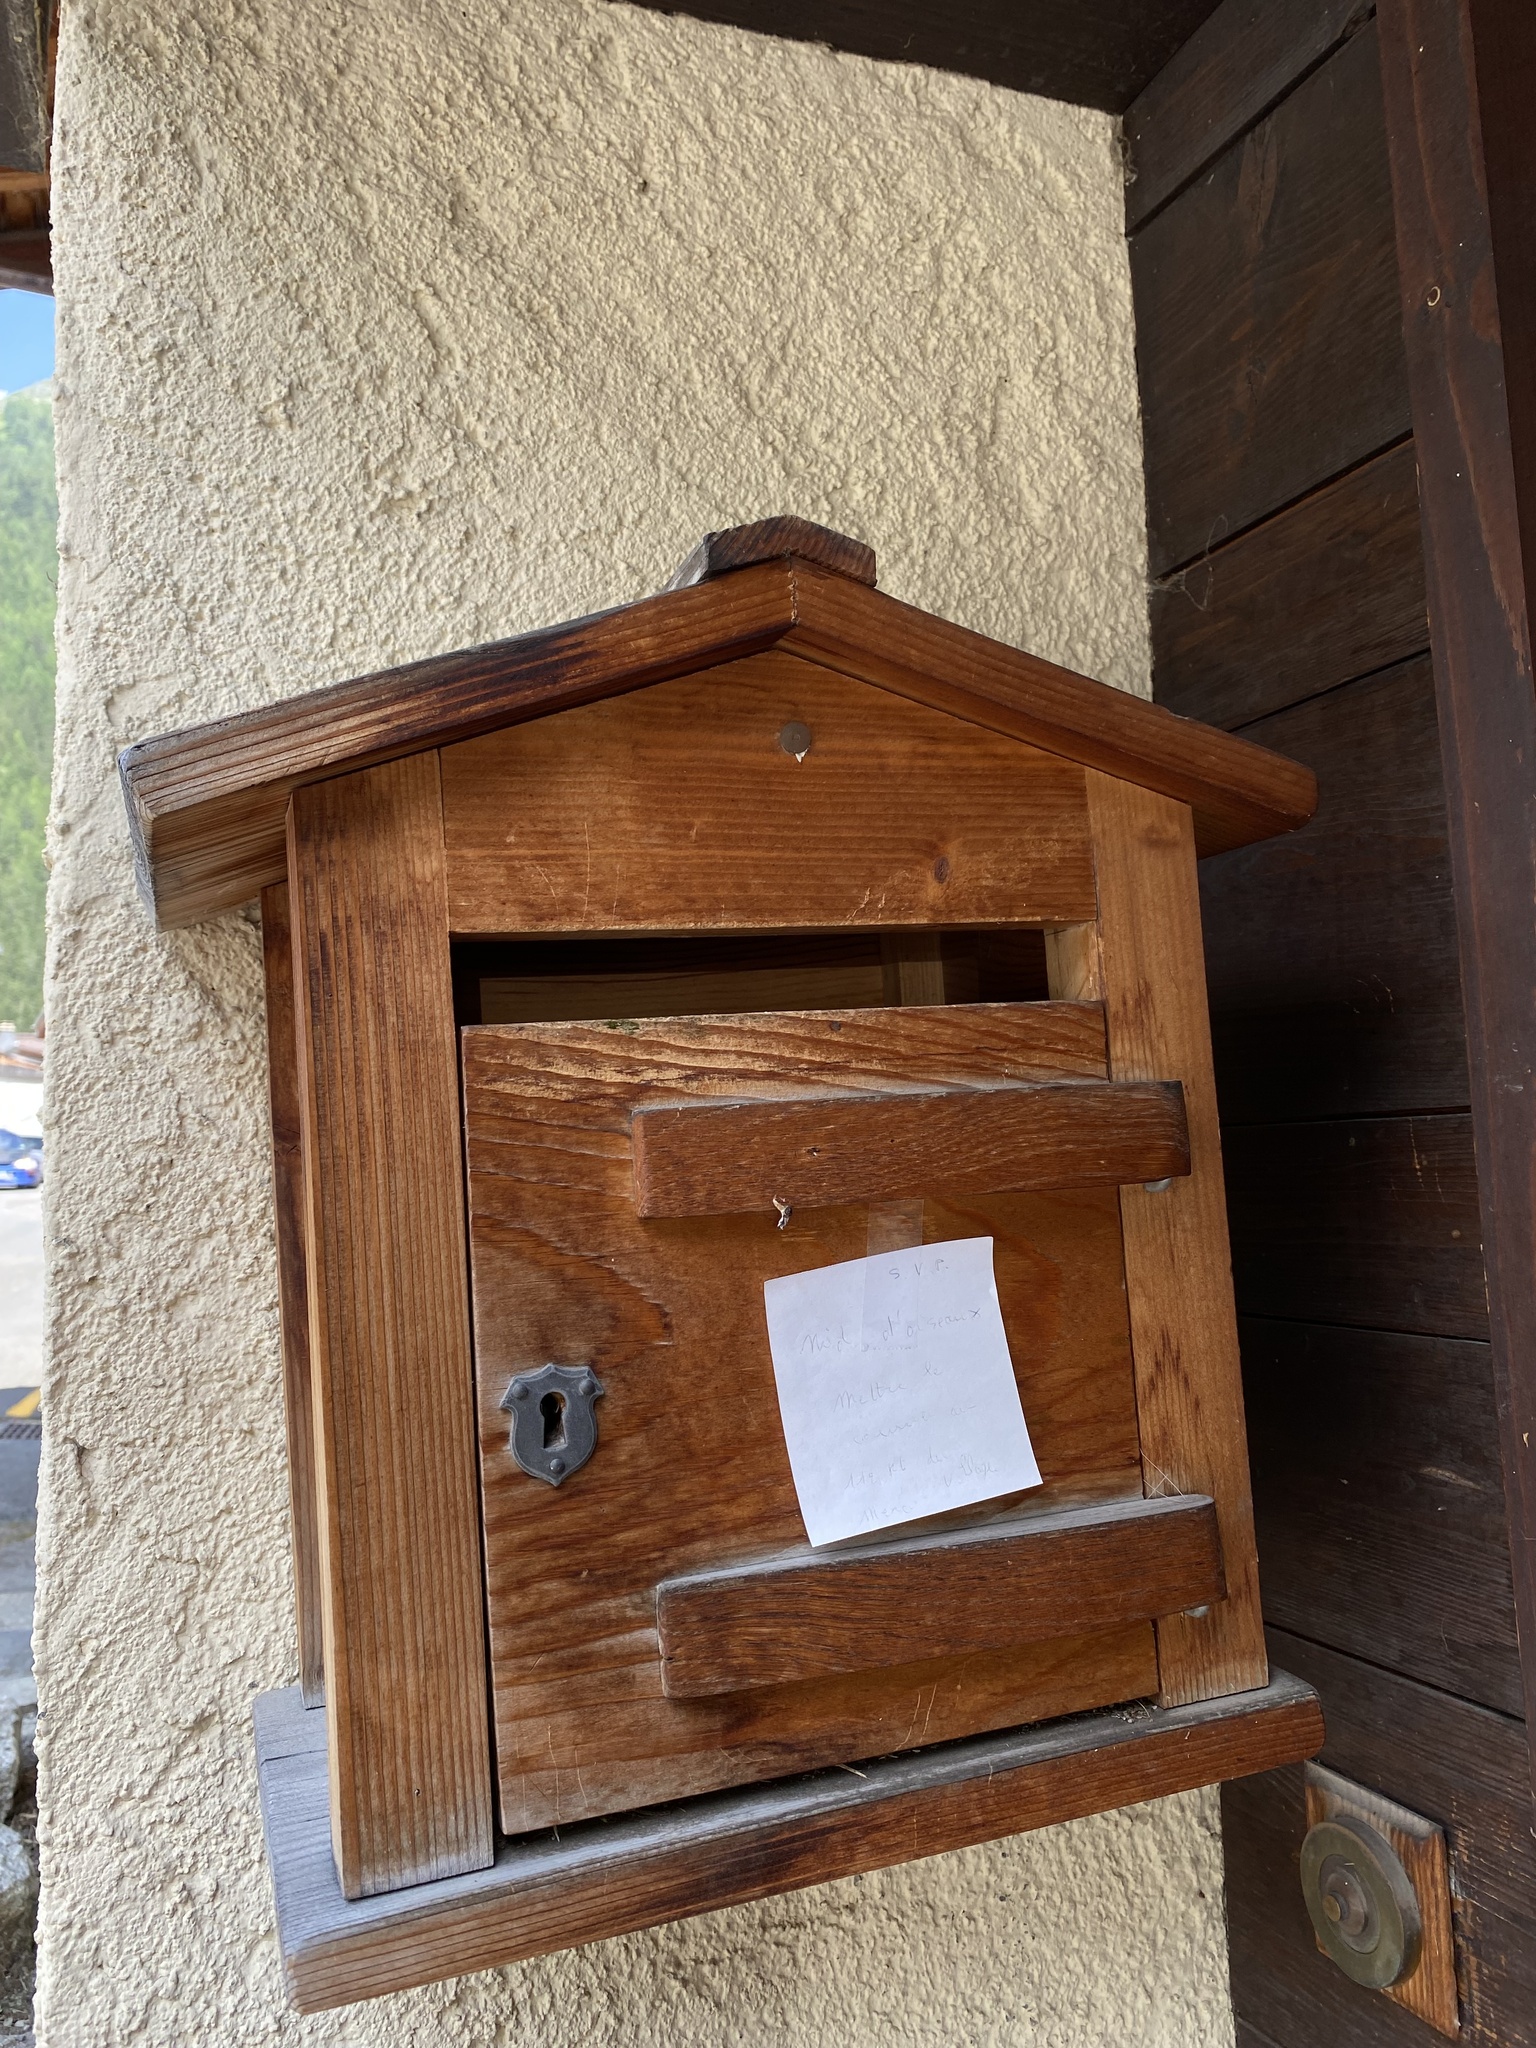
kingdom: Animalia
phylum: Chordata
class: Aves
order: Passeriformes
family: Paridae
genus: Parus
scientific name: Parus major
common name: Great tit
